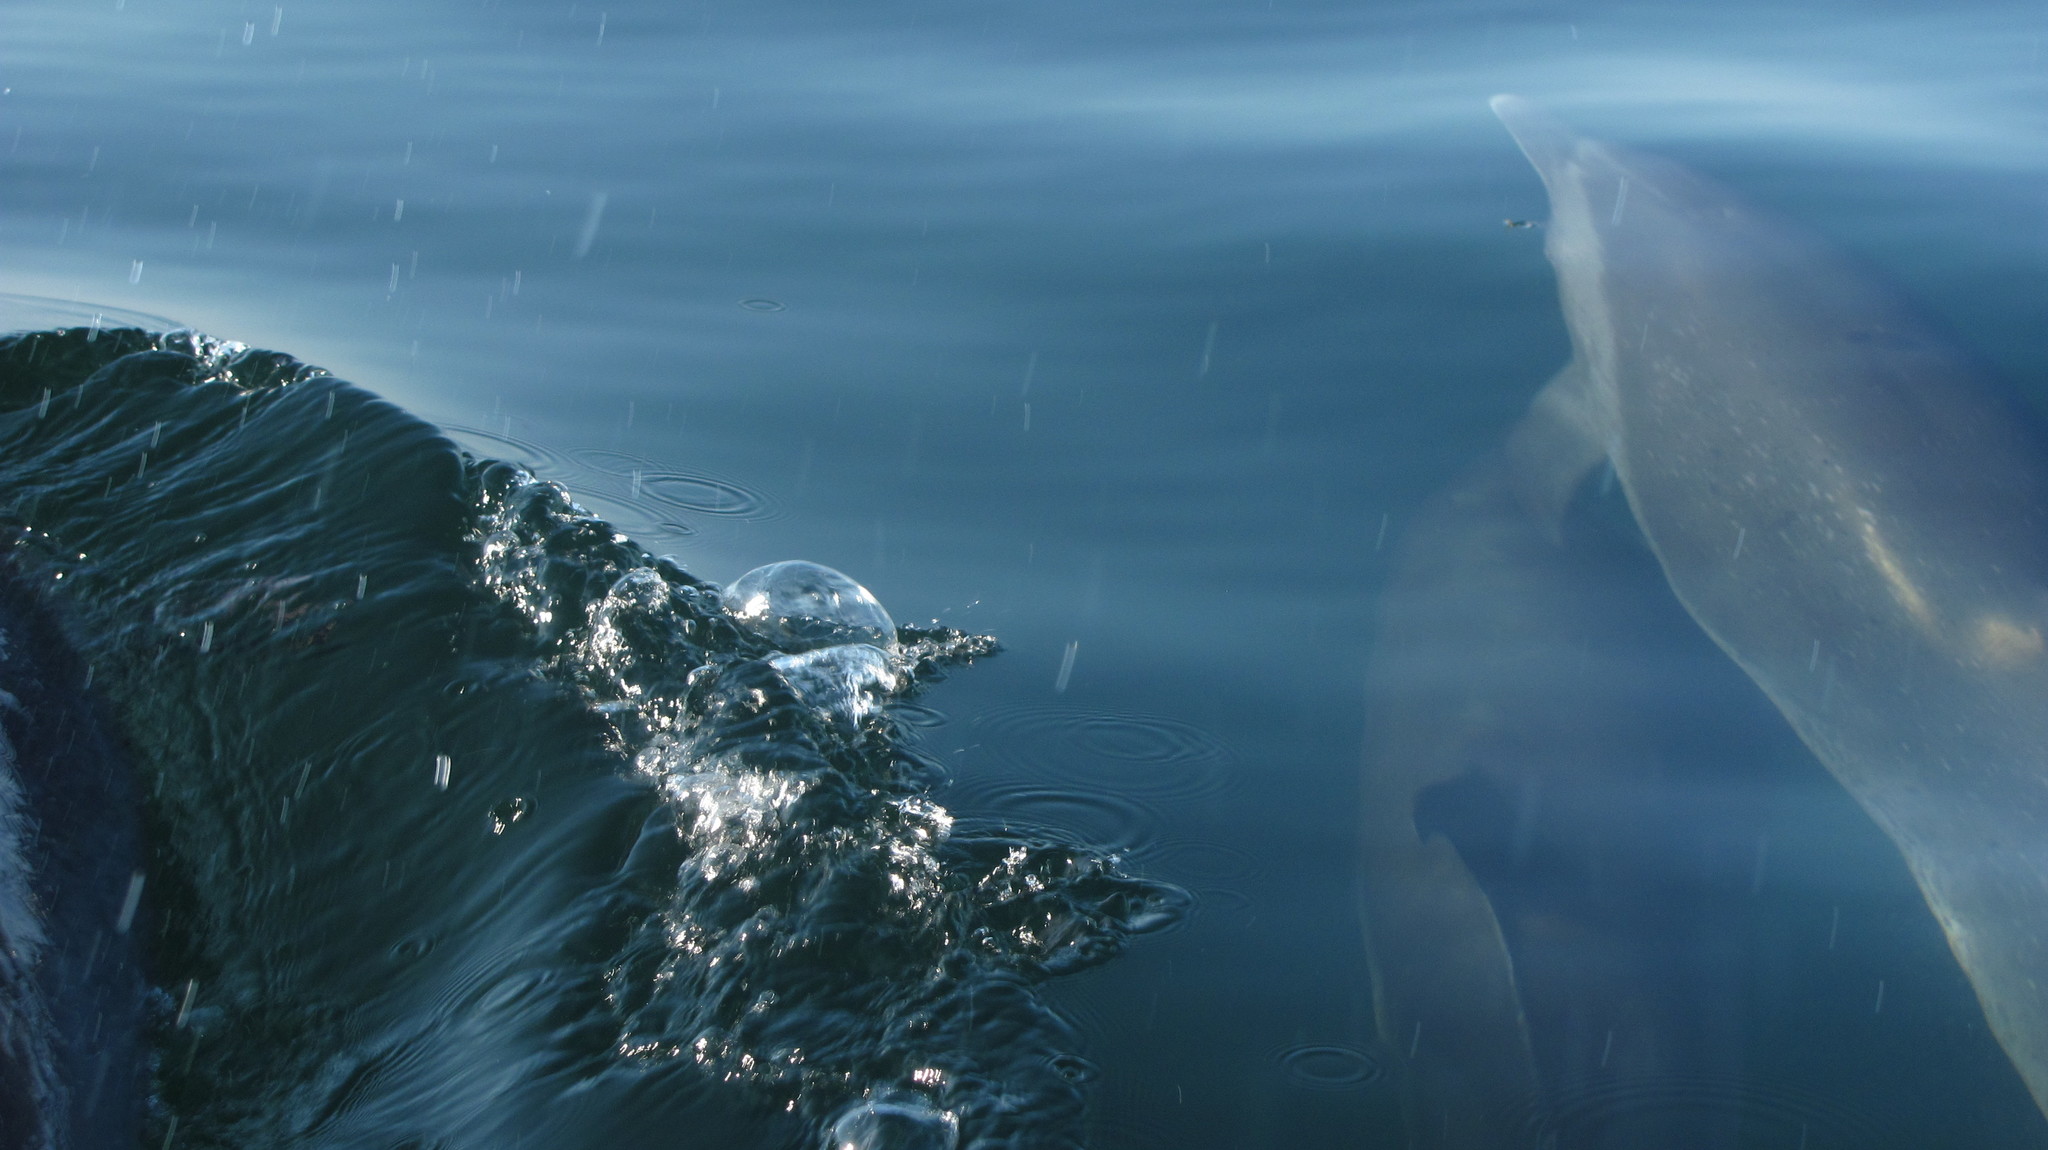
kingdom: Animalia
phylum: Chordata
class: Mammalia
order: Cetacea
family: Delphinidae
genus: Stenella
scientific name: Stenella attenuata
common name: Pantropical spotted dolphin
